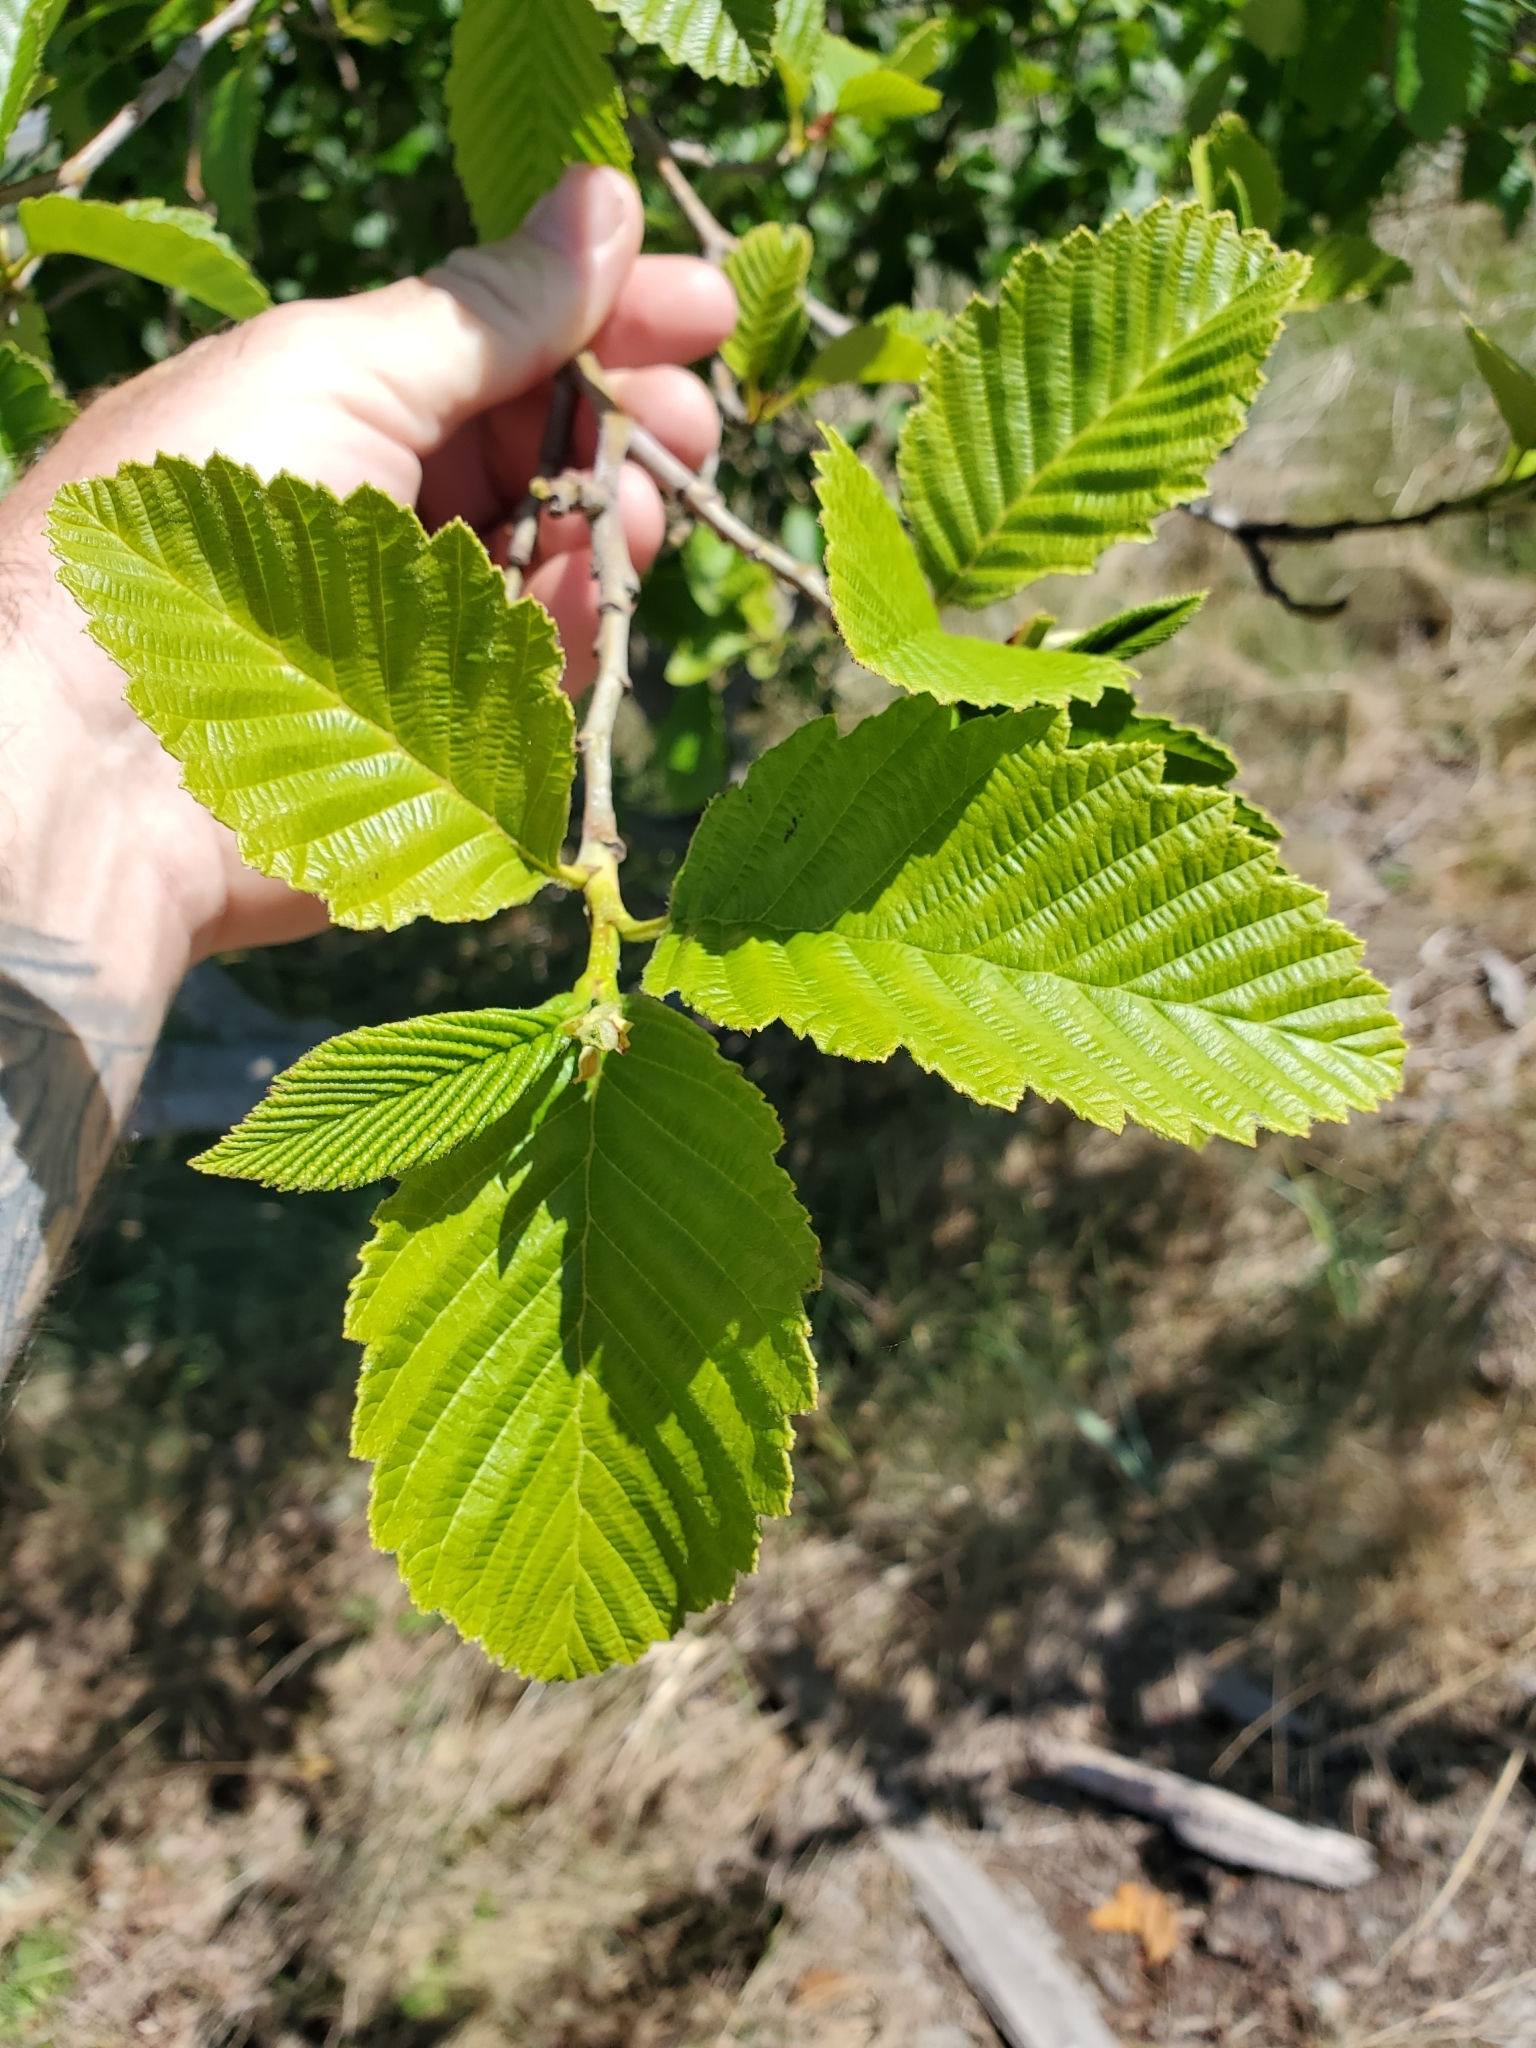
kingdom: Plantae
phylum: Tracheophyta
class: Magnoliopsida
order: Fagales
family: Betulaceae
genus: Alnus
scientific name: Alnus rubra
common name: Red alder
